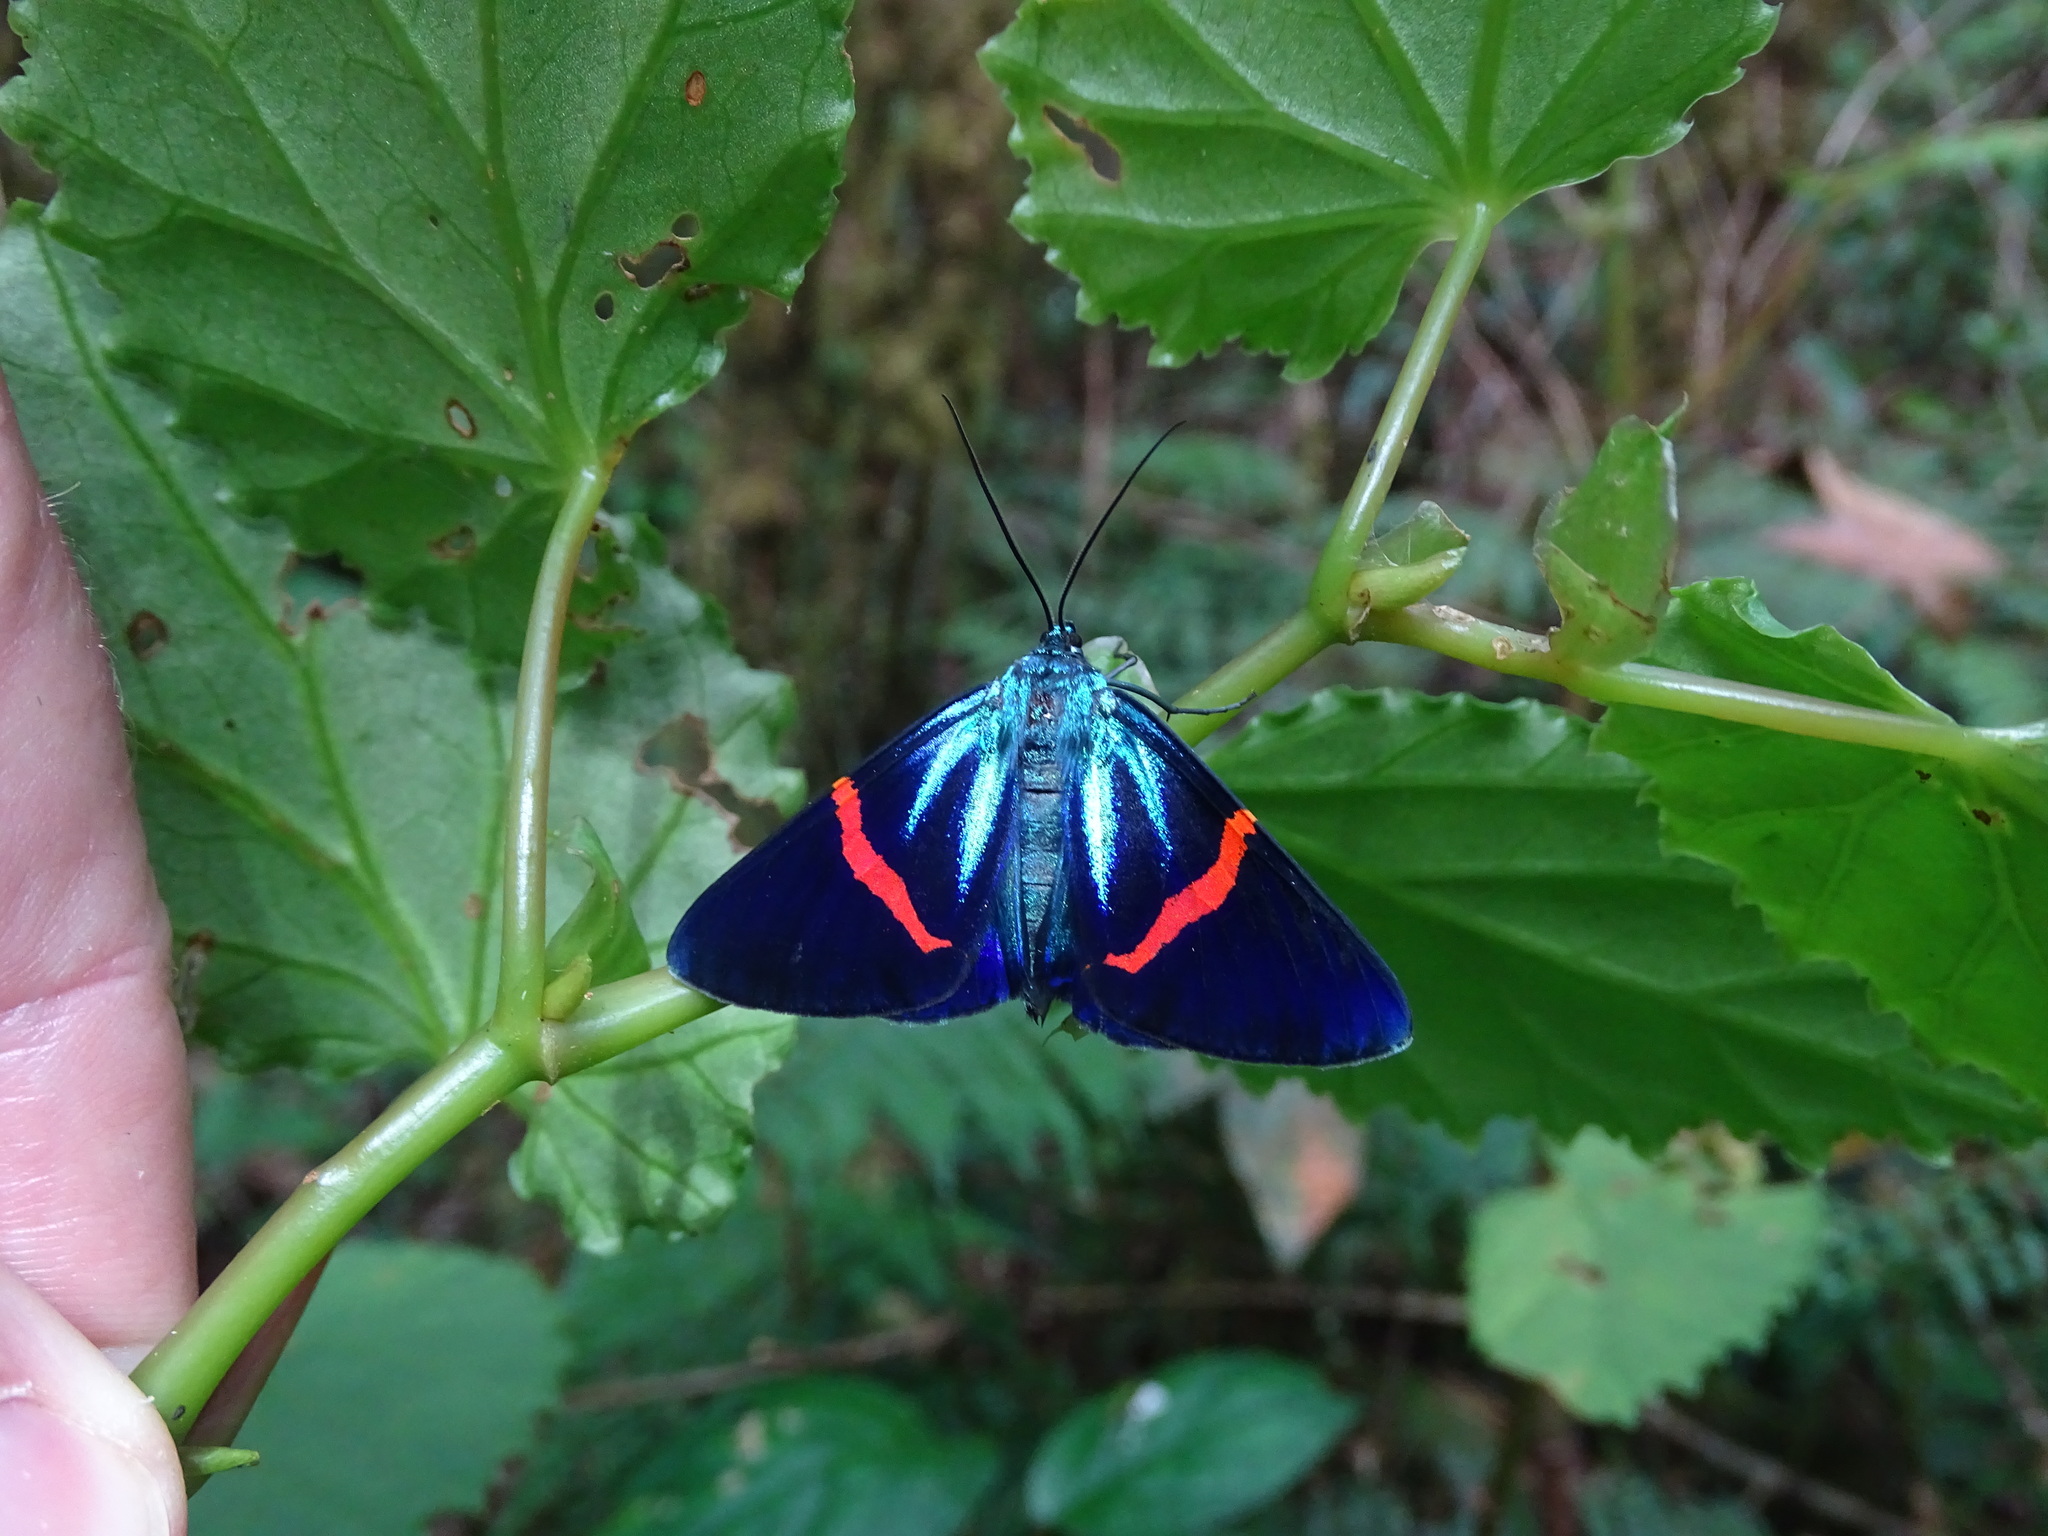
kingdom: Animalia
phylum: Arthropoda
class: Insecta
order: Lepidoptera
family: Geometridae
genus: Milionia
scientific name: Milionia fulgida
